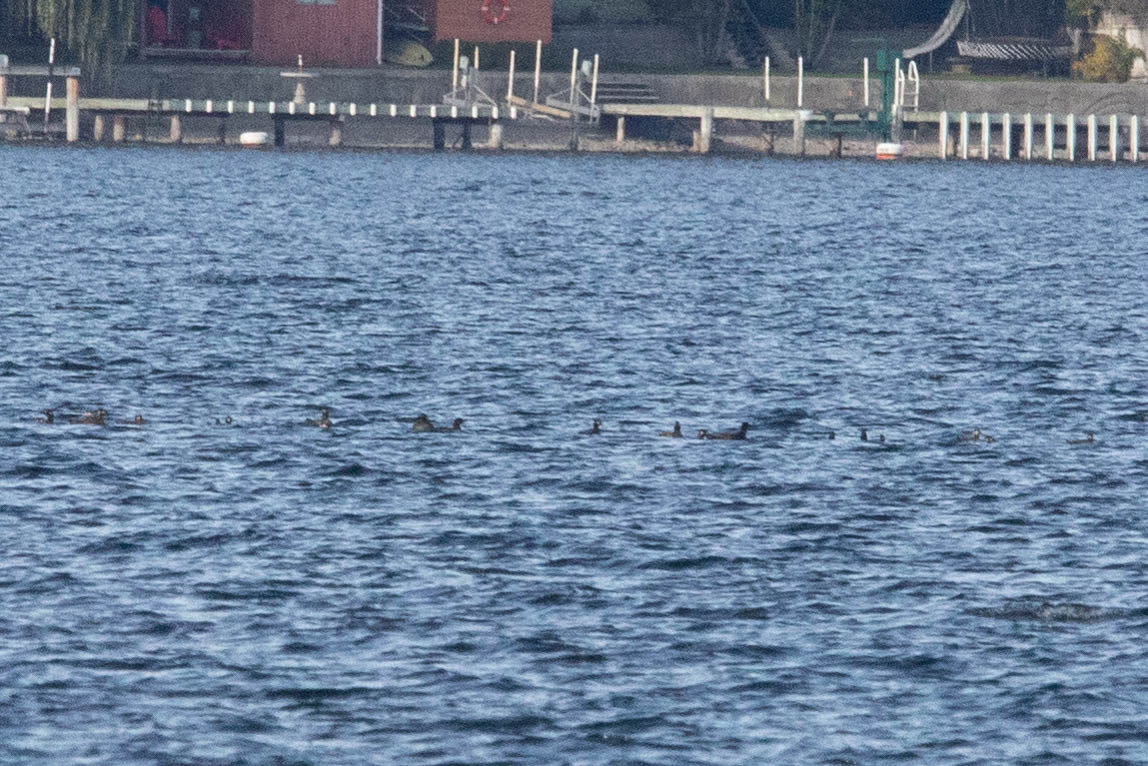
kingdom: Animalia
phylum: Chordata
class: Aves
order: Anseriformes
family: Anatidae
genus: Melanitta
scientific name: Melanitta perspicillata
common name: Surf scoter
